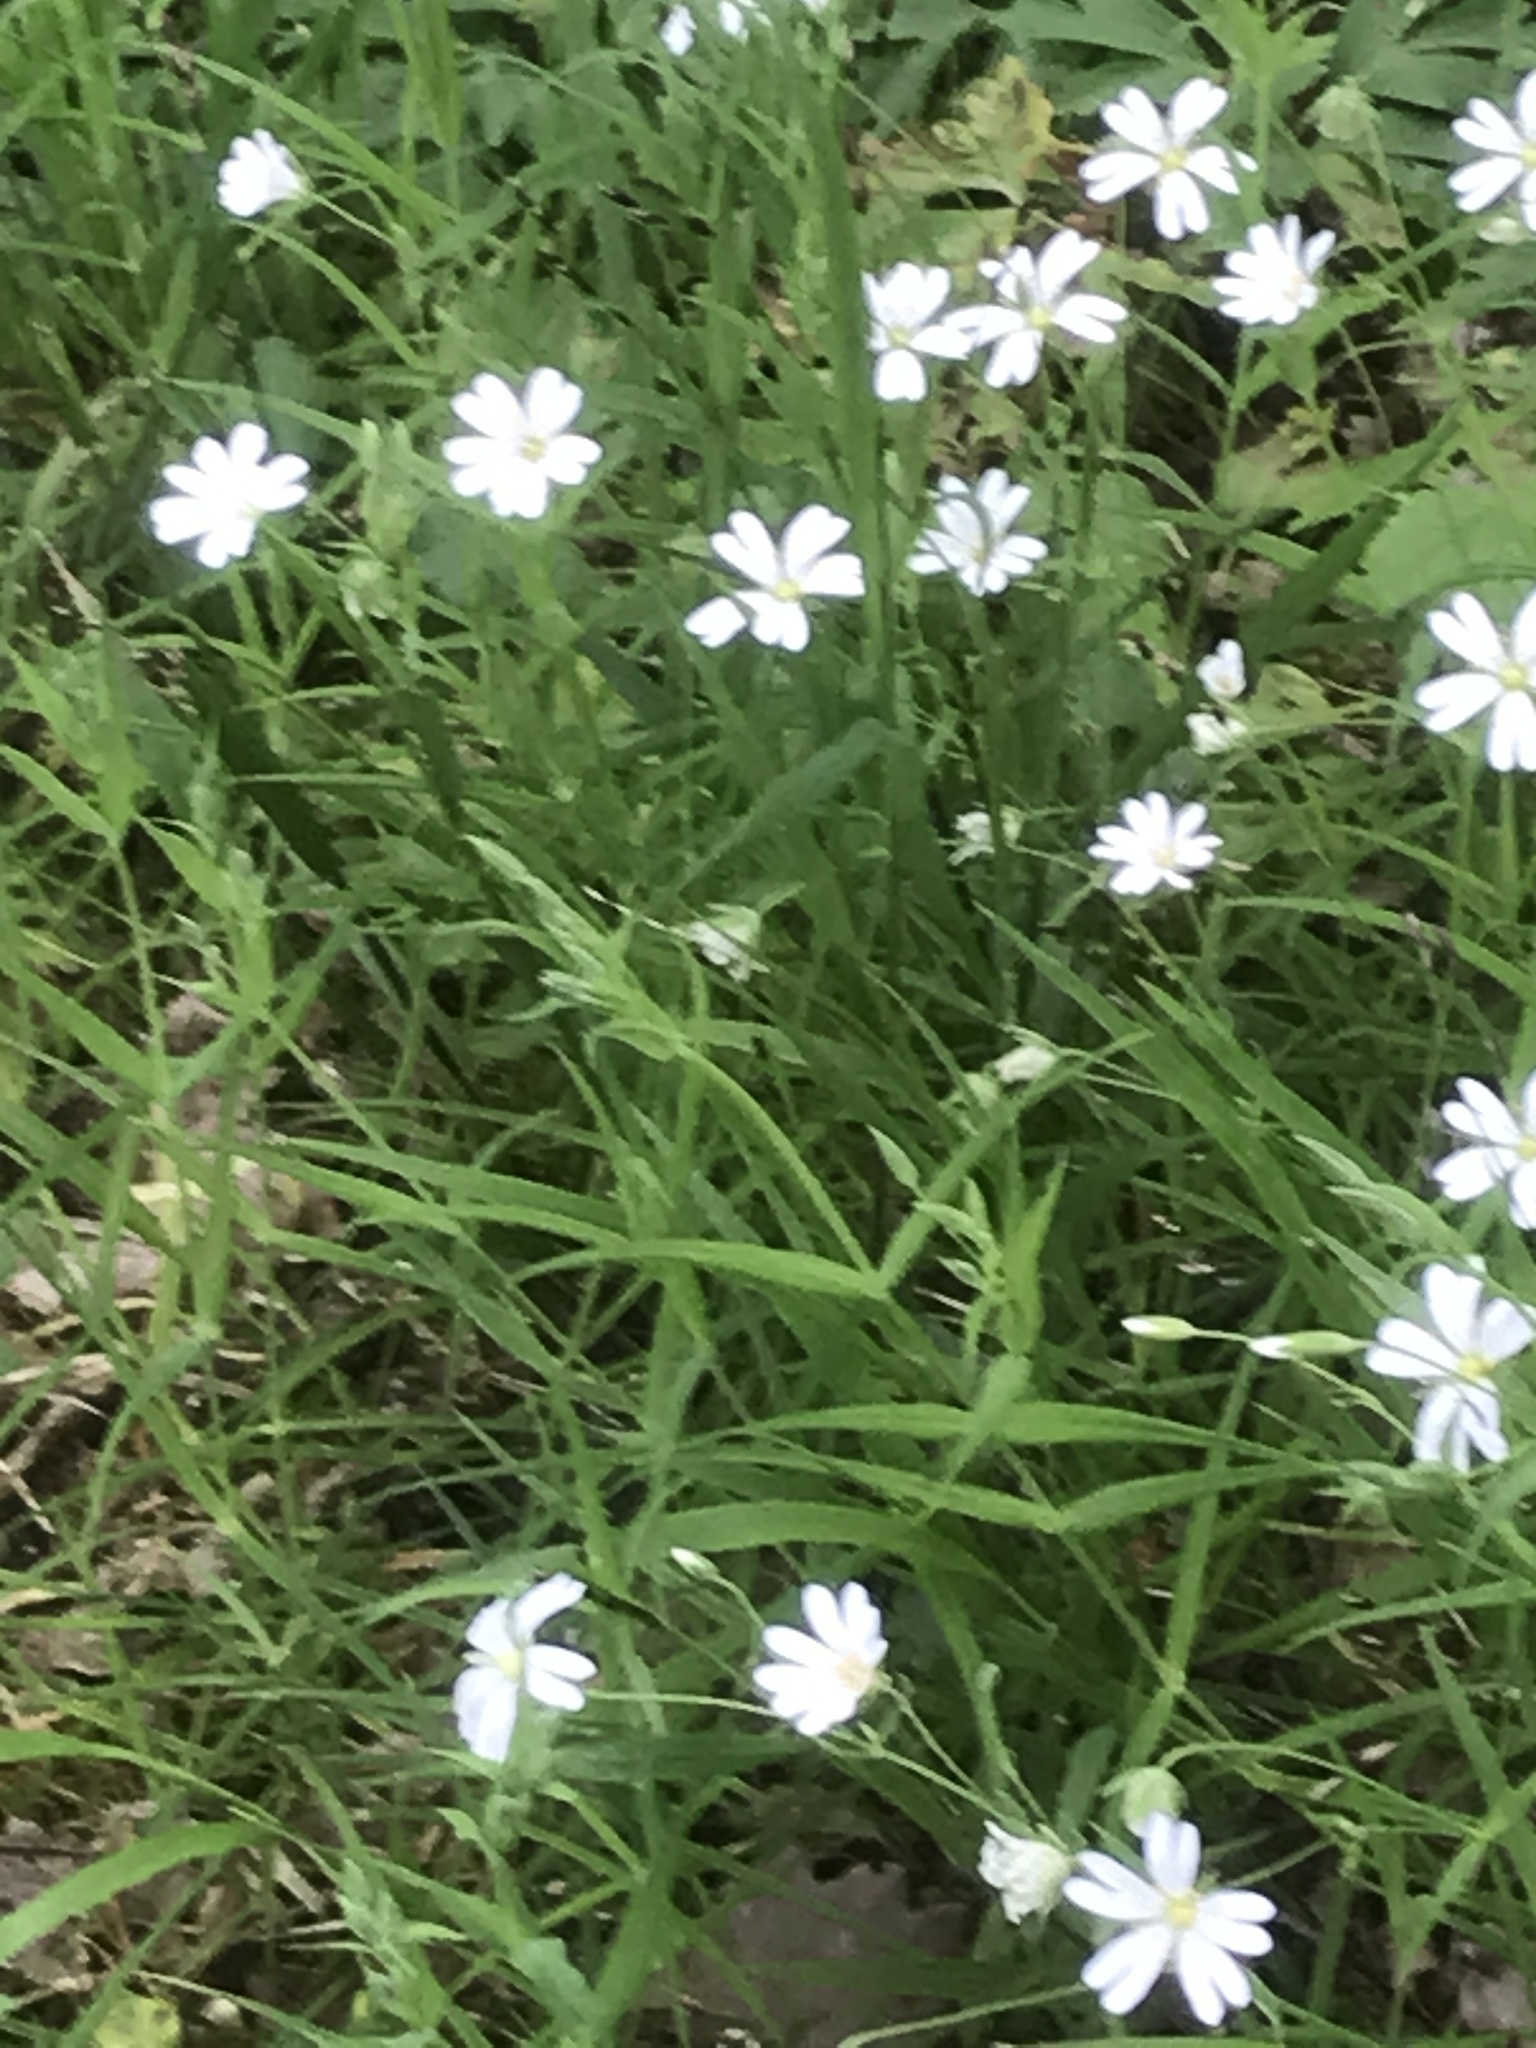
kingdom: Plantae
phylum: Tracheophyta
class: Magnoliopsida
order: Caryophyllales
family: Caryophyllaceae
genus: Rabelera
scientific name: Rabelera holostea
